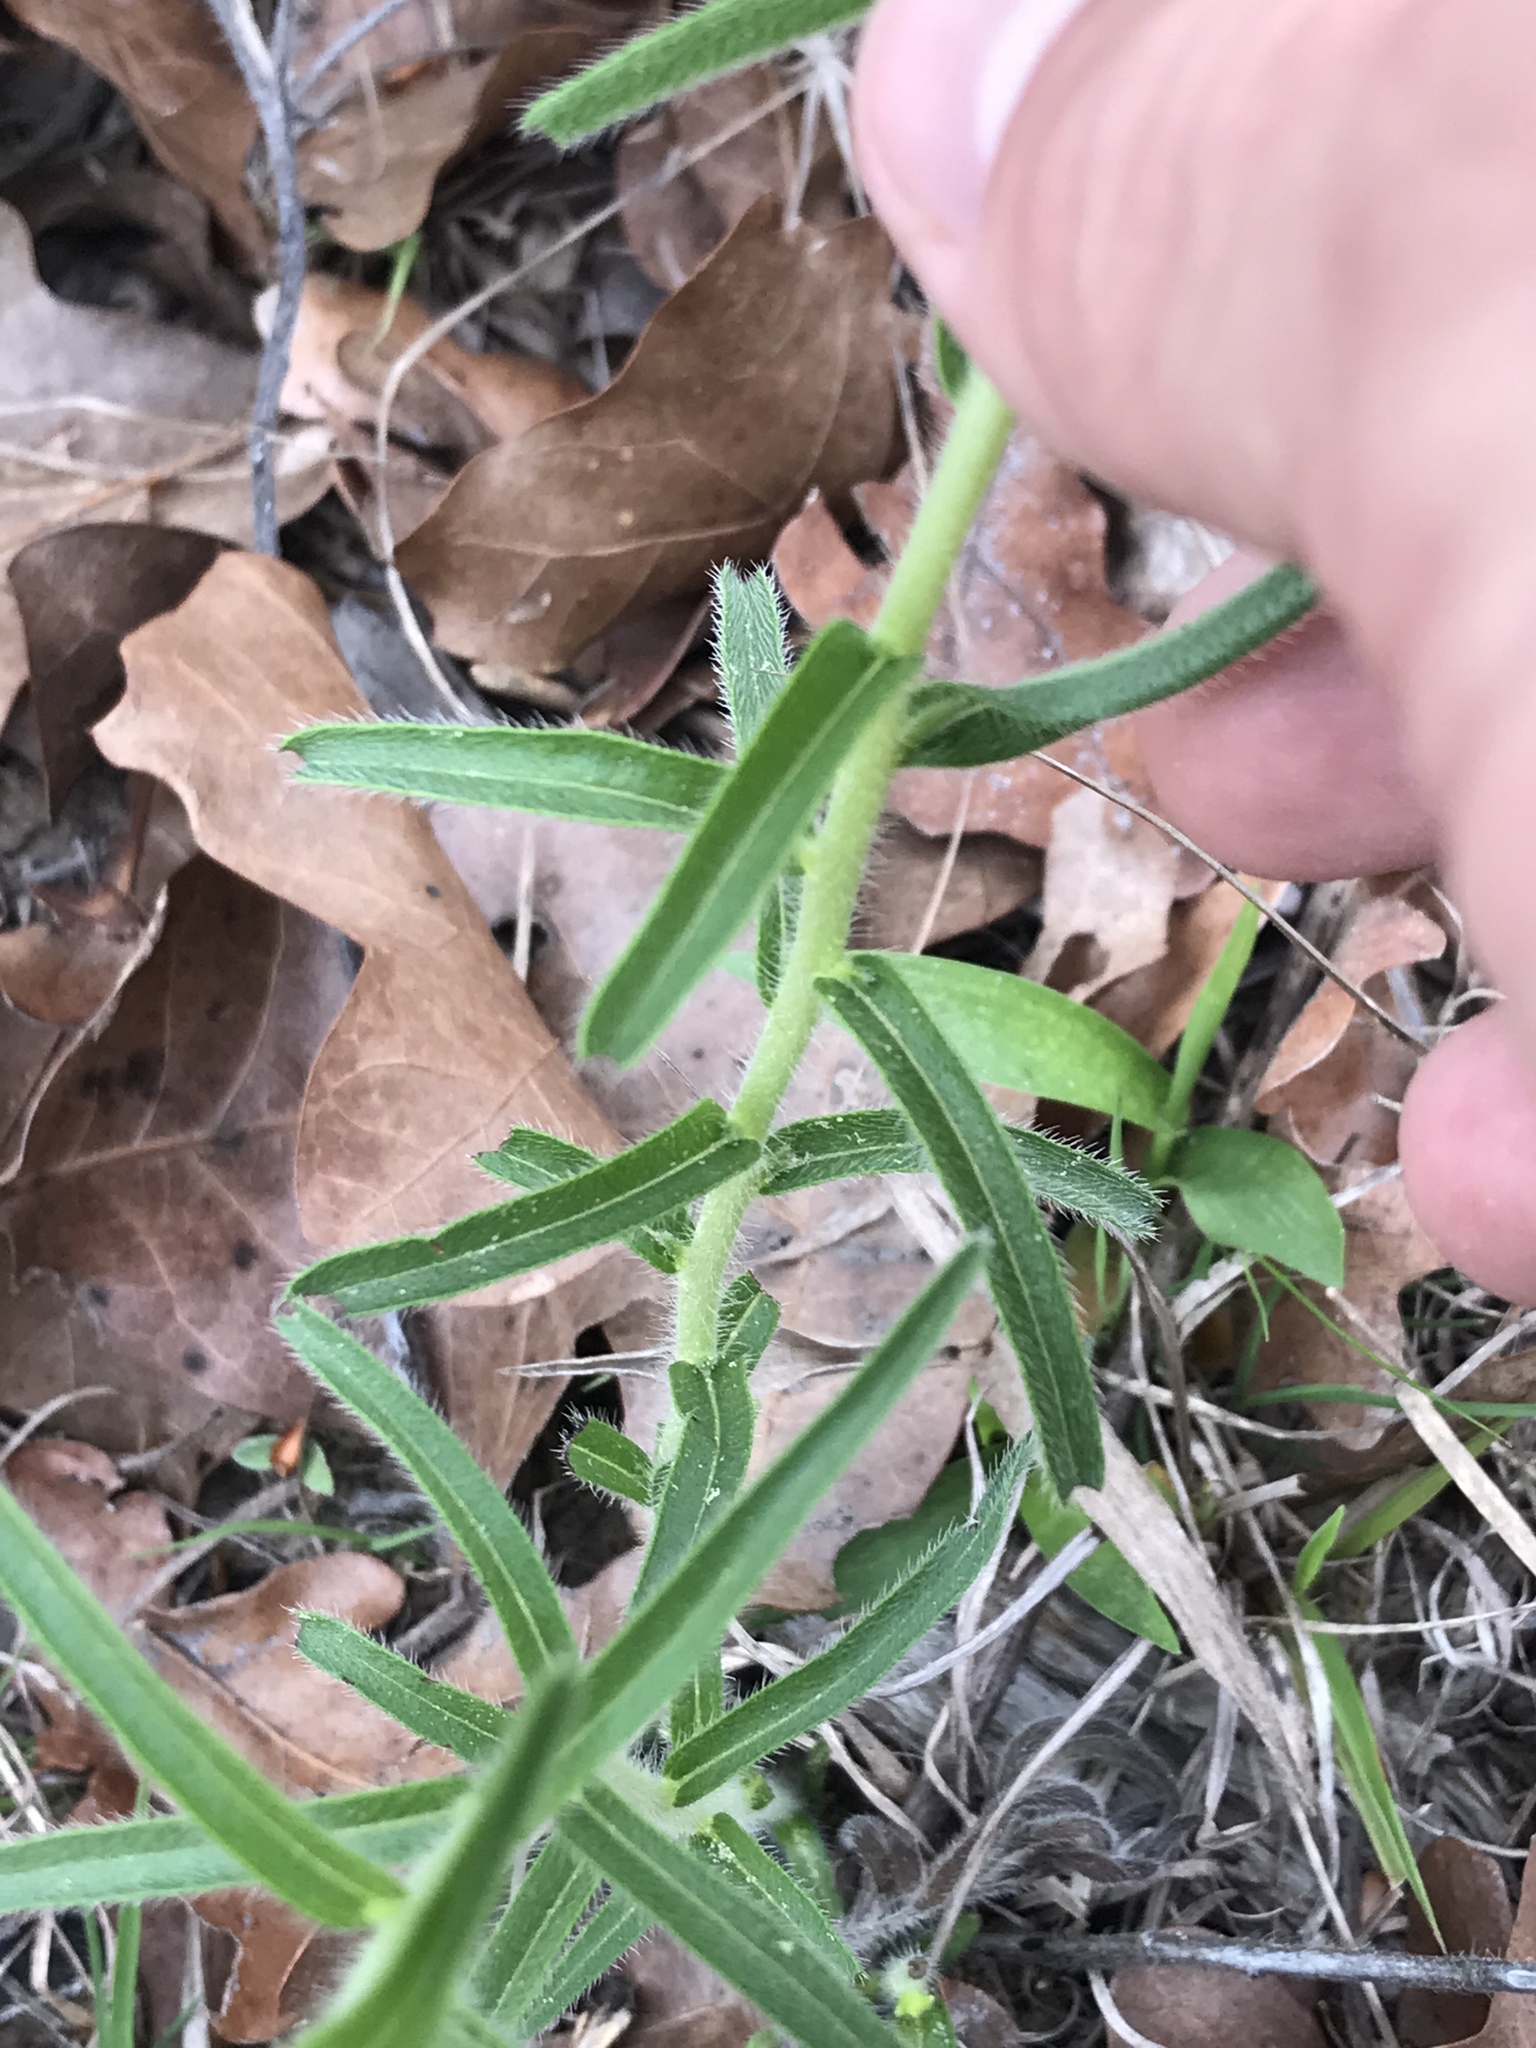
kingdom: Plantae
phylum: Tracheophyta
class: Magnoliopsida
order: Boraginales
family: Boraginaceae
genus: Lithospermum
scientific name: Lithospermum caroliniense
